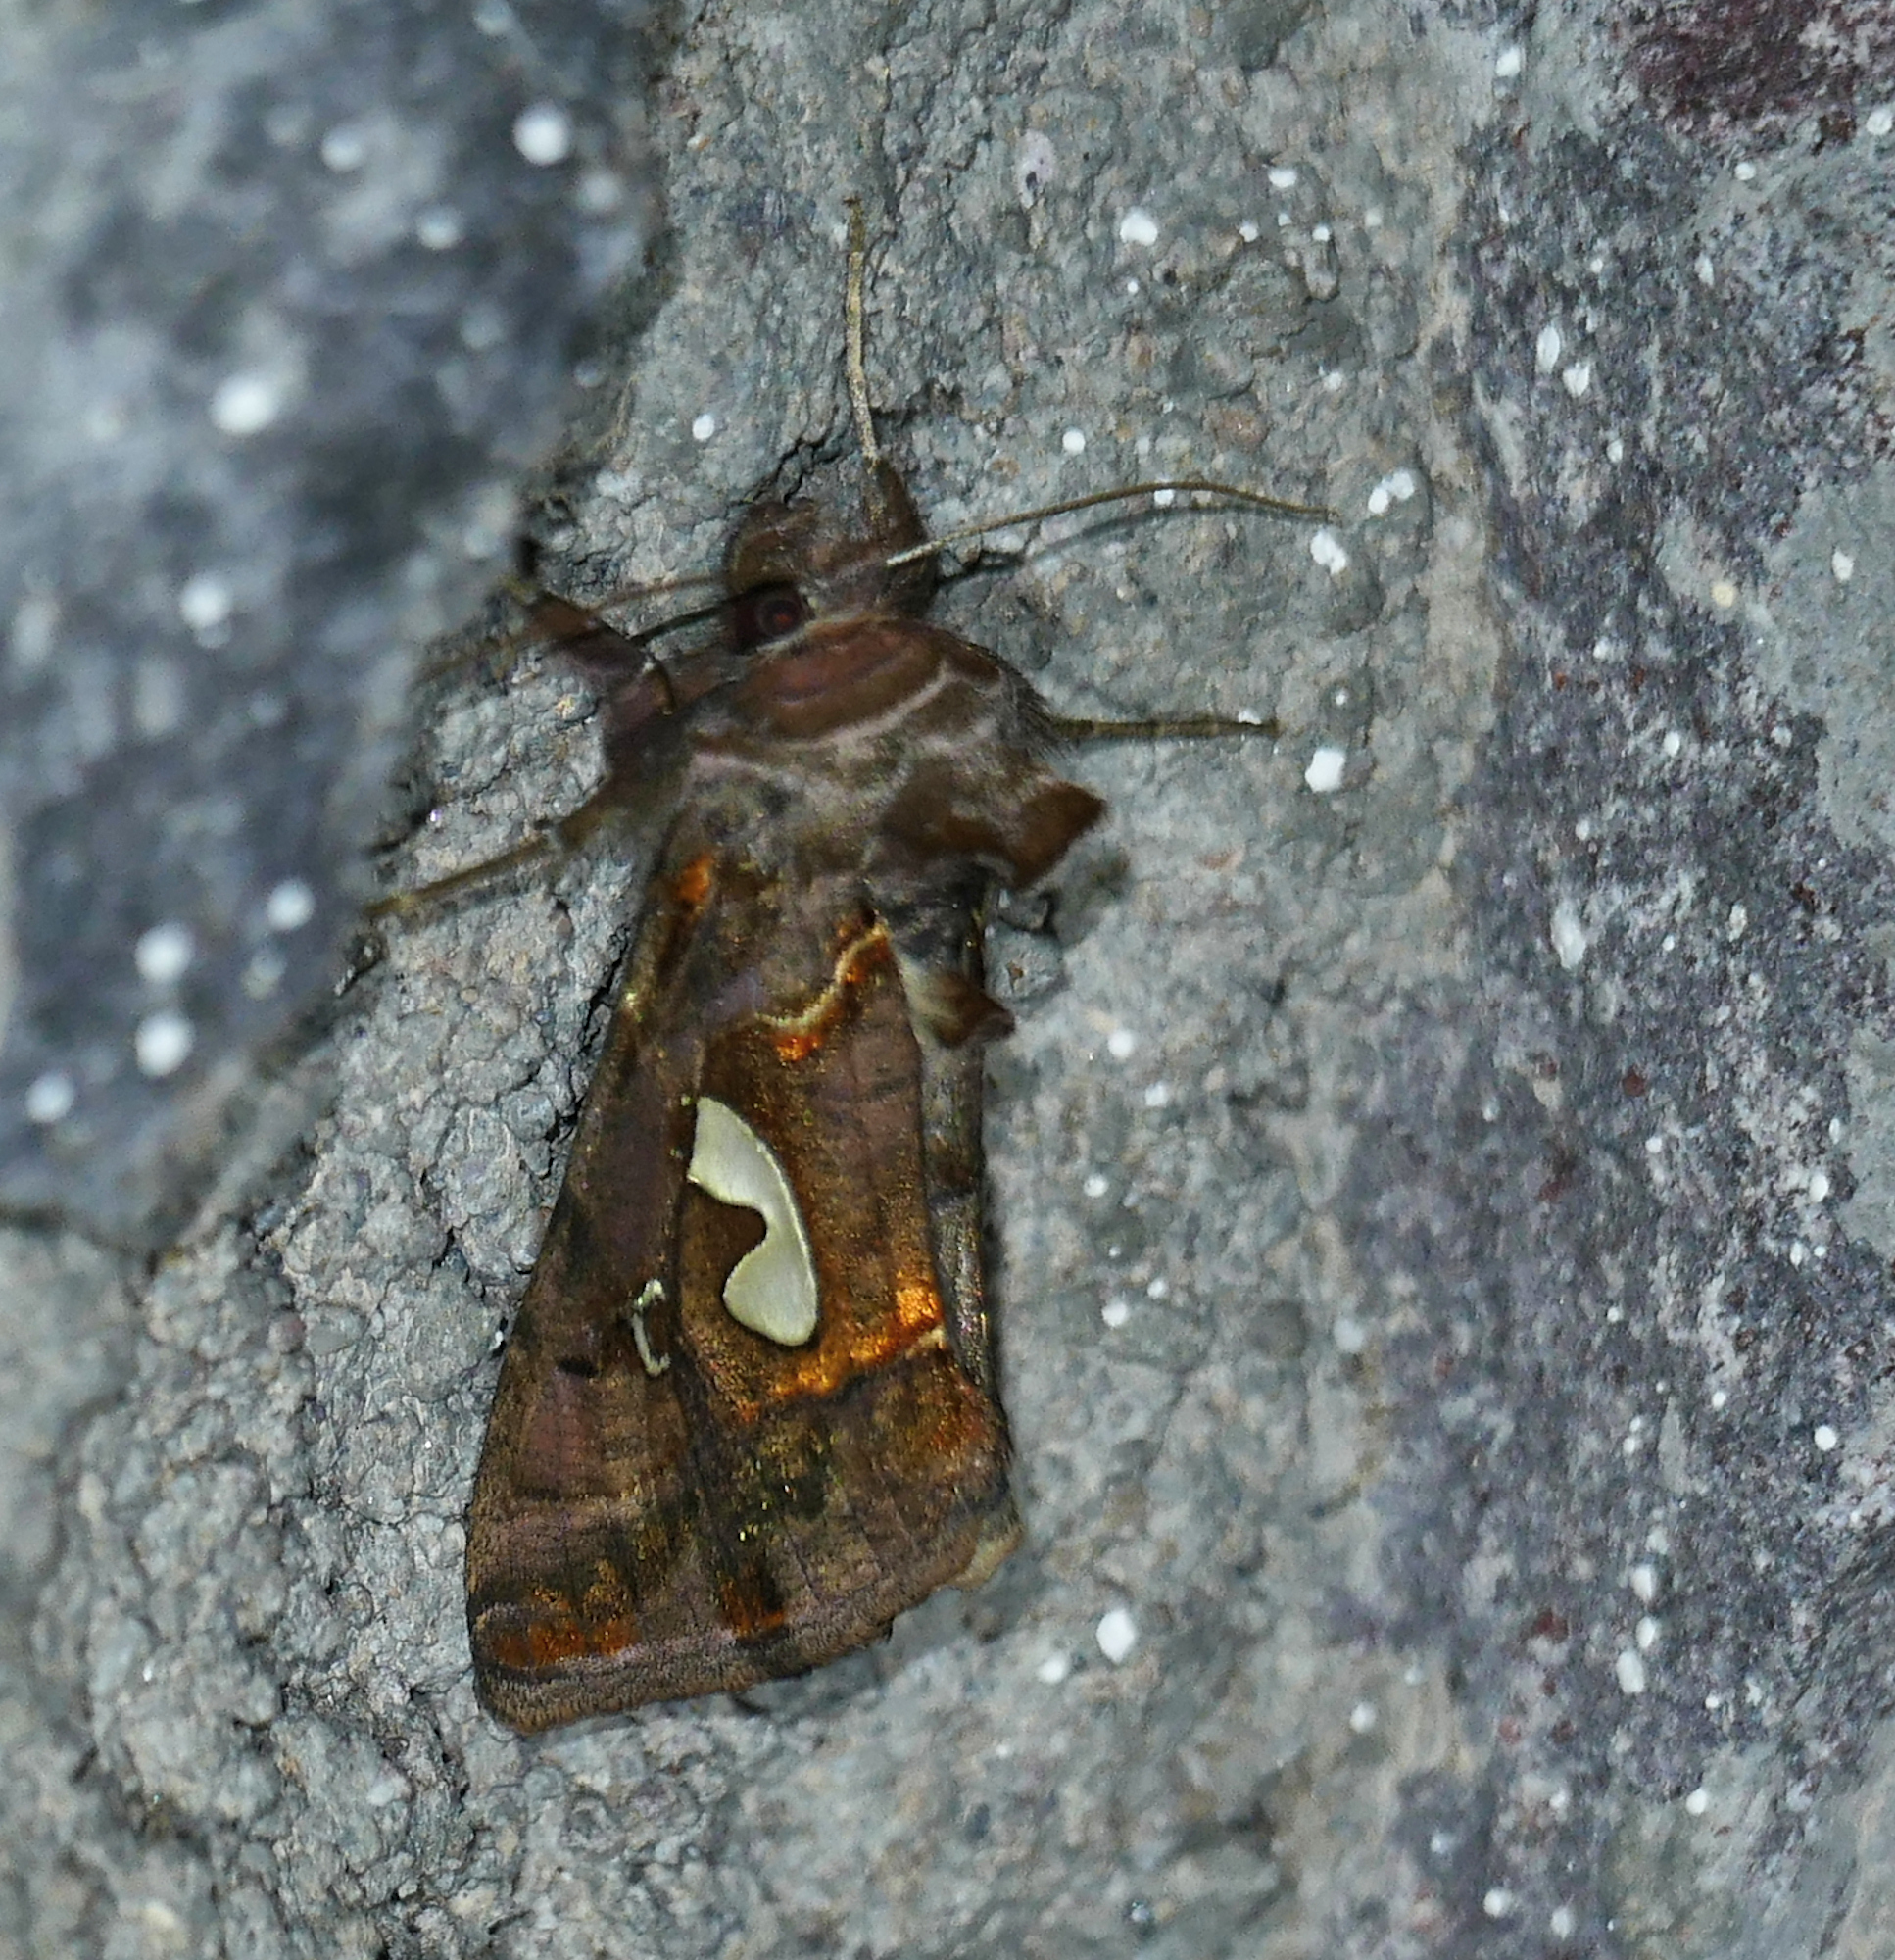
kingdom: Animalia
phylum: Arthropoda
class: Insecta
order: Lepidoptera
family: Noctuidae
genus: Megalographa
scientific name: Megalographa biloba
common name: Cutworm
